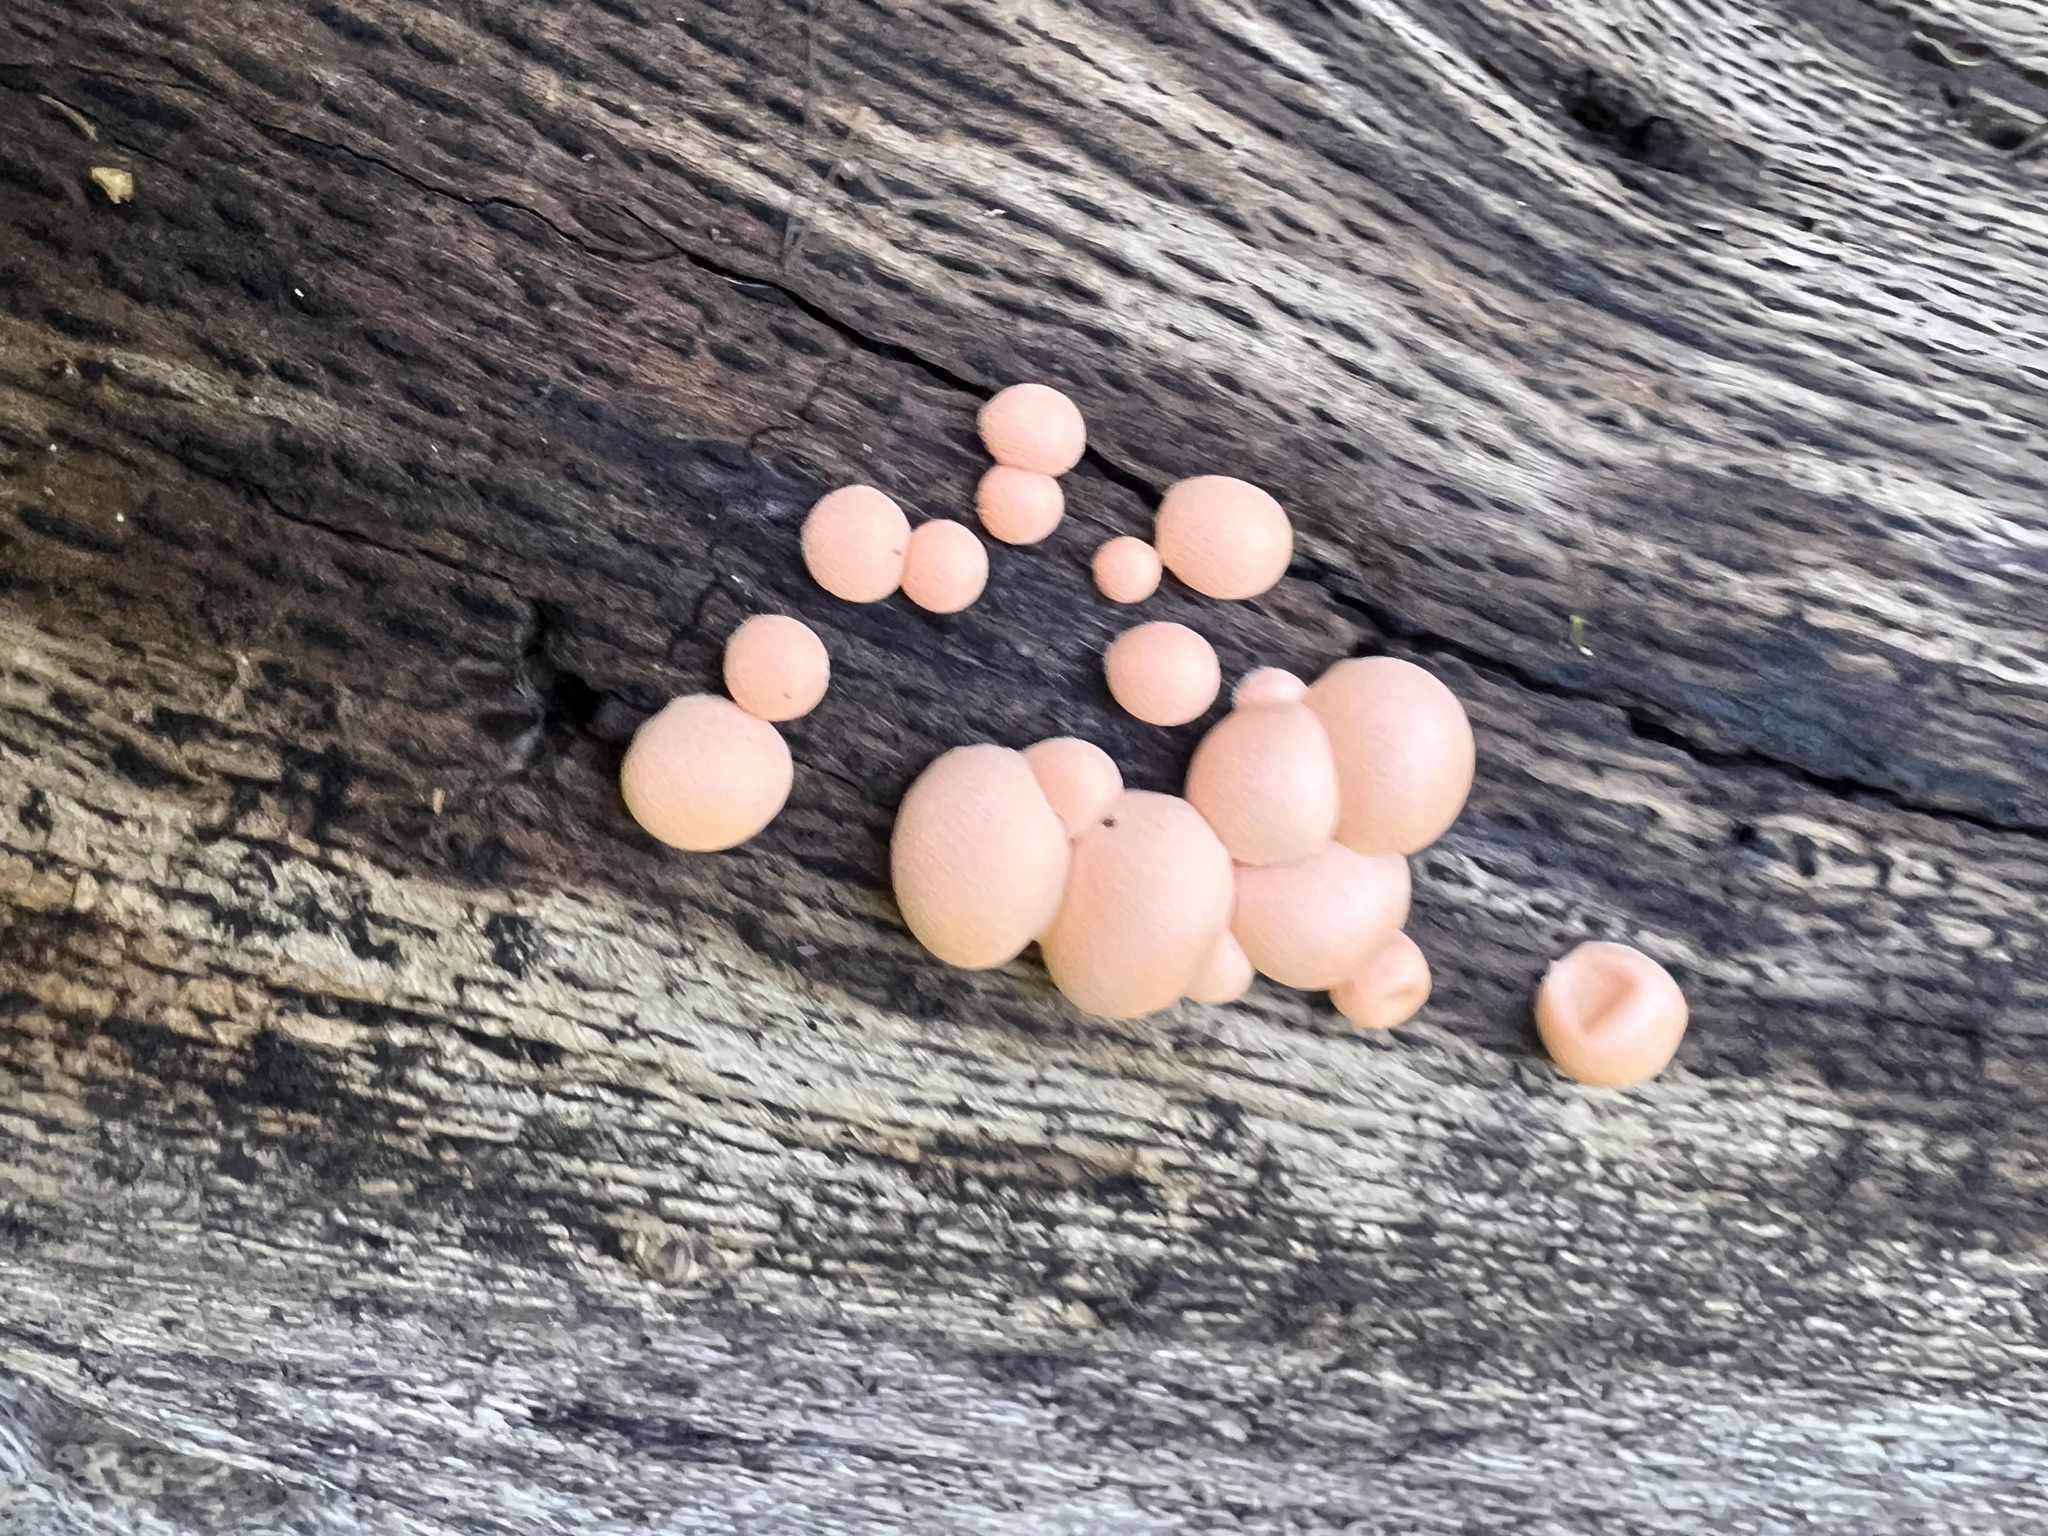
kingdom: Protozoa
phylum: Mycetozoa
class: Myxomycetes
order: Cribrariales
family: Tubiferaceae
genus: Lycogala
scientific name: Lycogala epidendrum
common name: Wolf's milk
